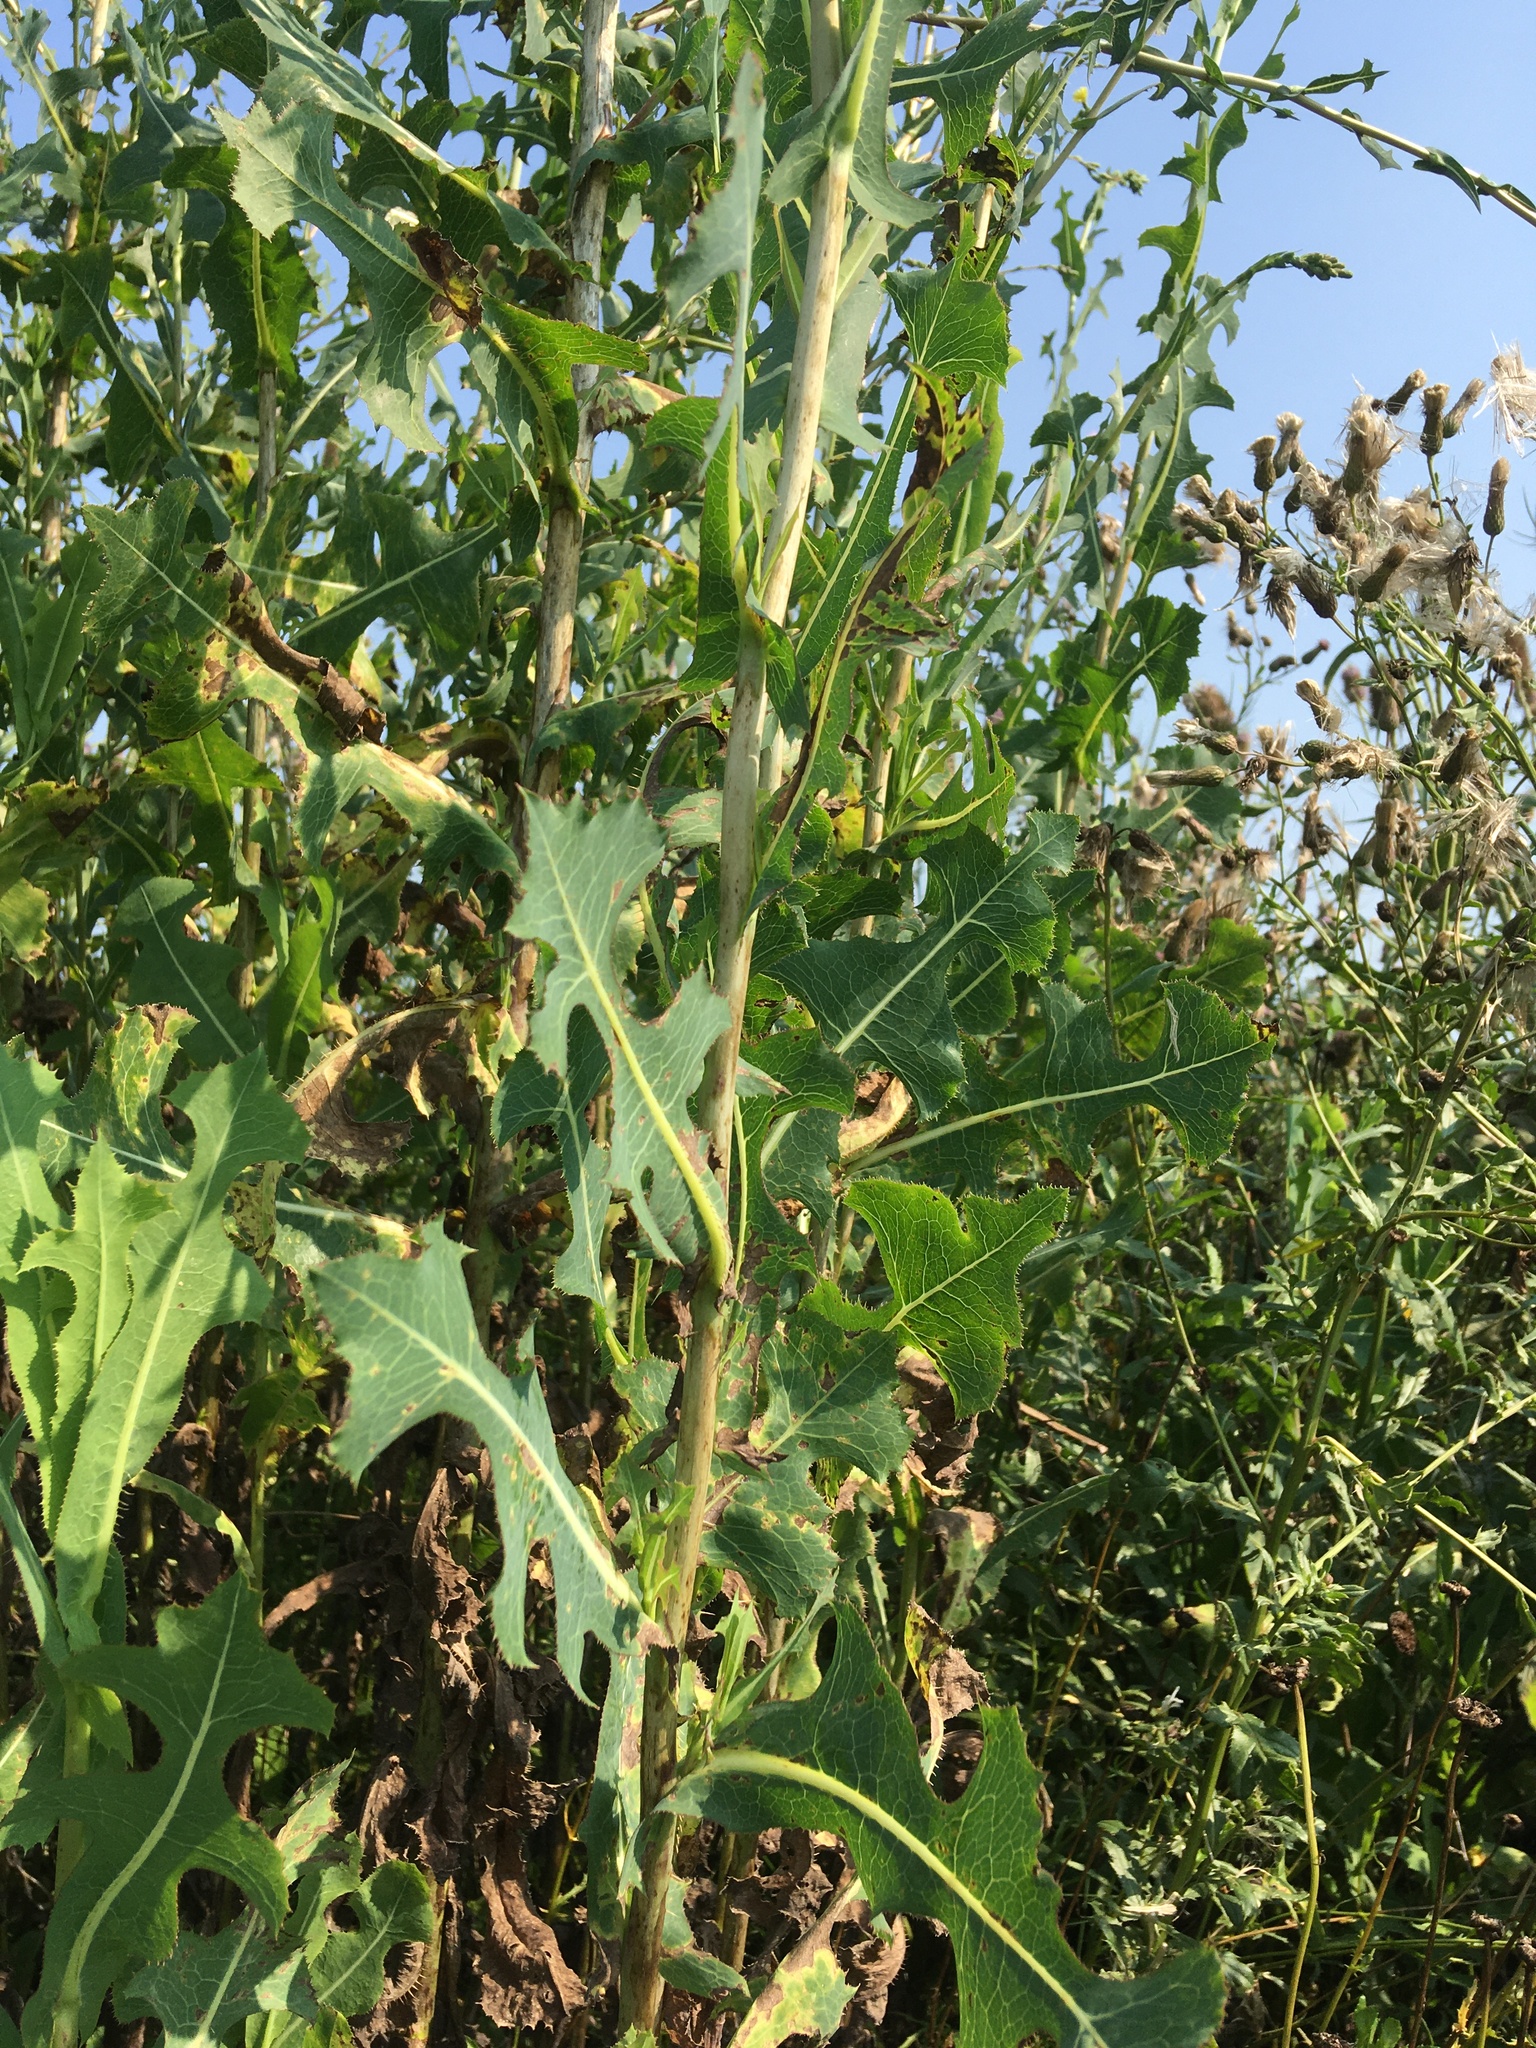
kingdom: Plantae
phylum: Tracheophyta
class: Magnoliopsida
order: Asterales
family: Asteraceae
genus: Lactuca
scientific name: Lactuca serriola
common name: Prickly lettuce
